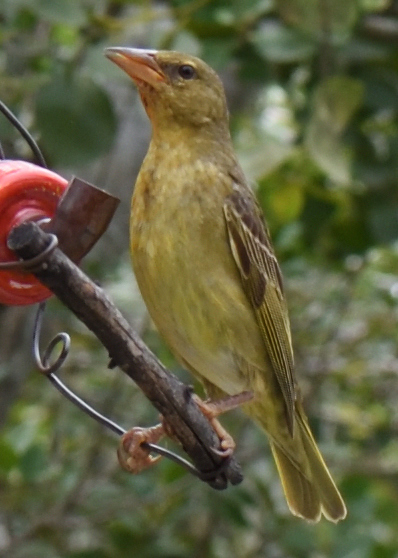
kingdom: Animalia
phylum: Chordata
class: Aves
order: Passeriformes
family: Ploceidae
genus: Ploceus
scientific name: Ploceus capensis
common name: Cape weaver
